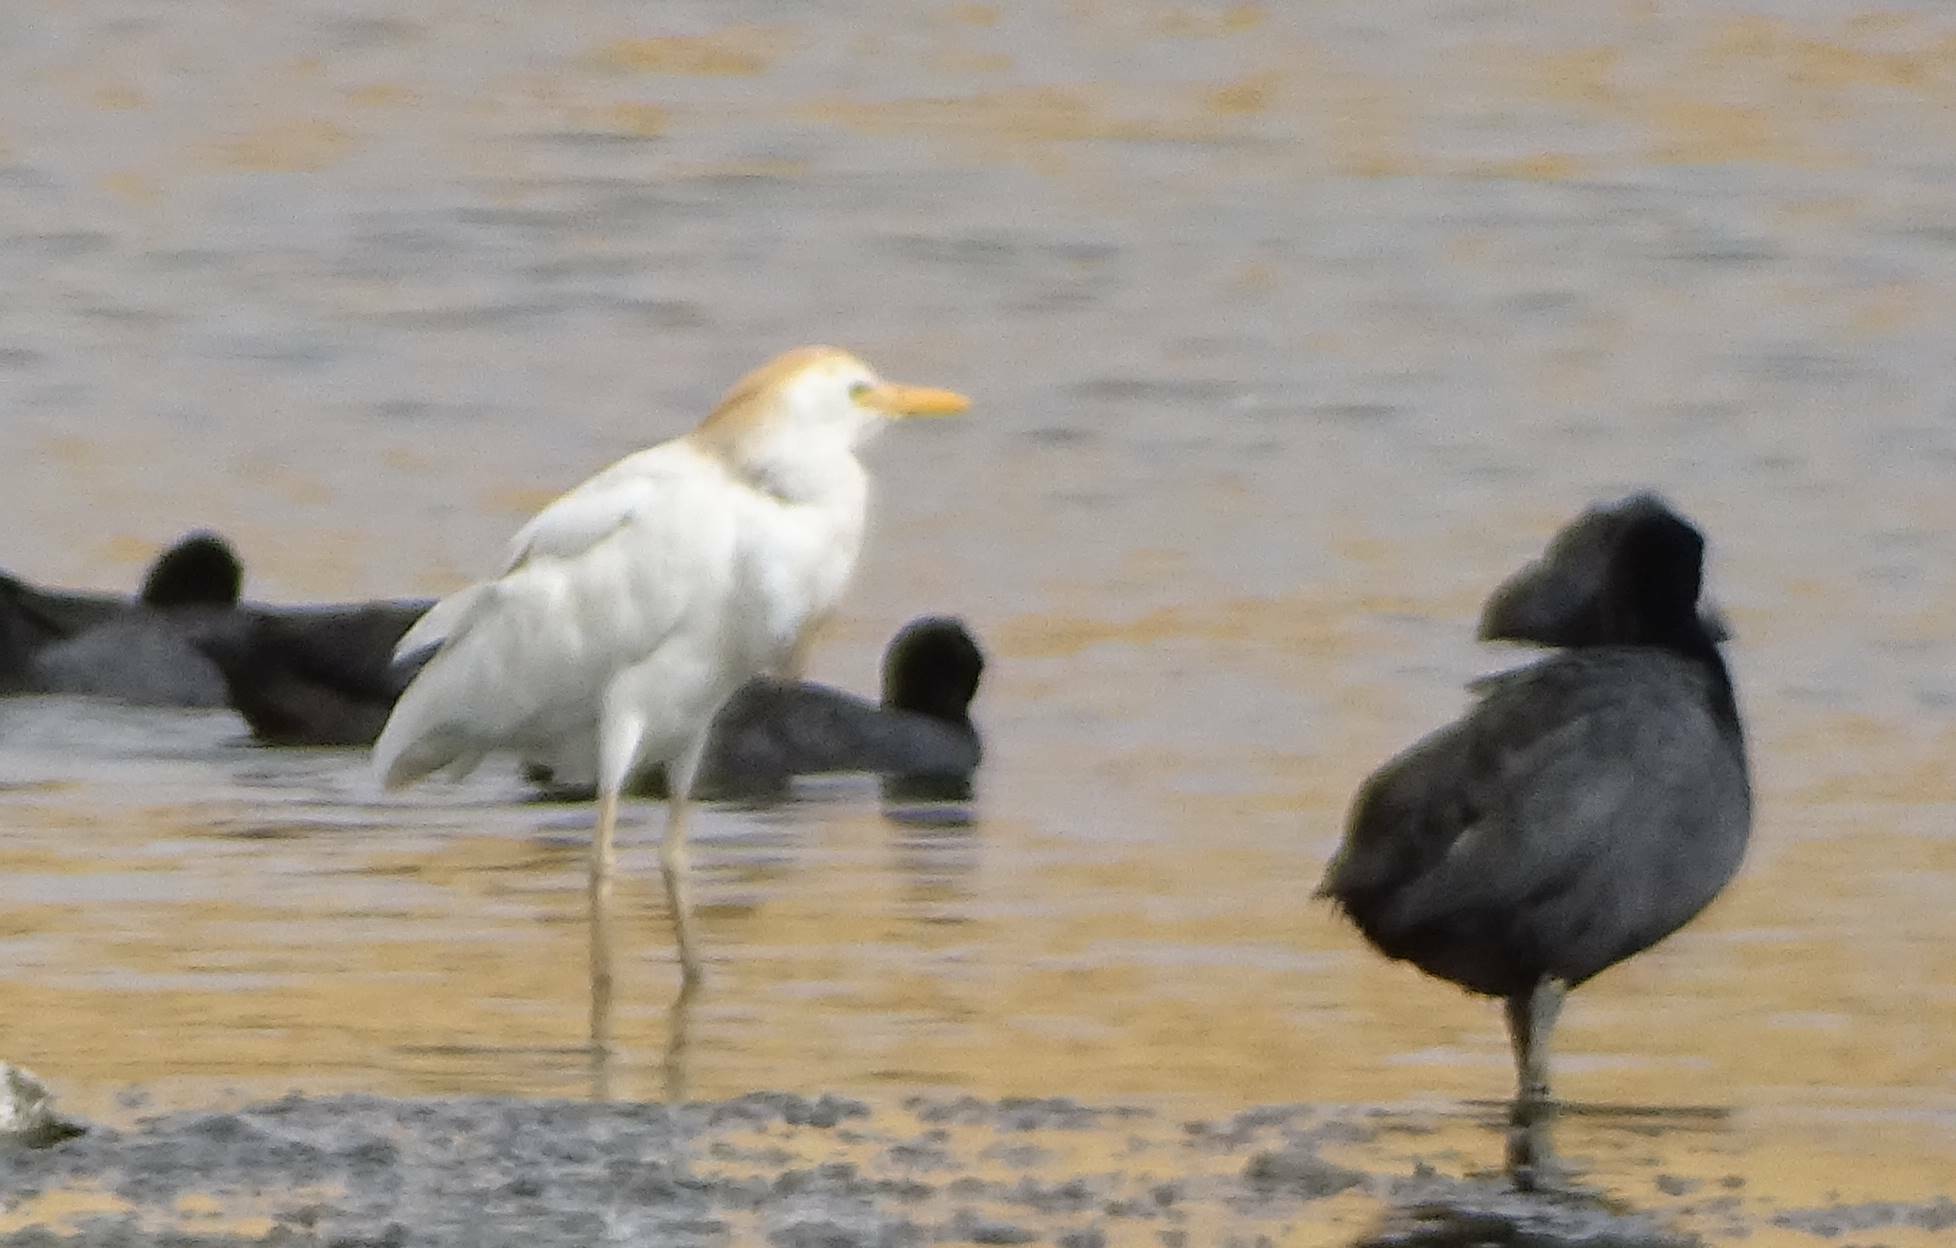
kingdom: Animalia
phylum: Chordata
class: Aves
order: Pelecaniformes
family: Ardeidae
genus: Bubulcus
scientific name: Bubulcus ibis
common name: Cattle egret
